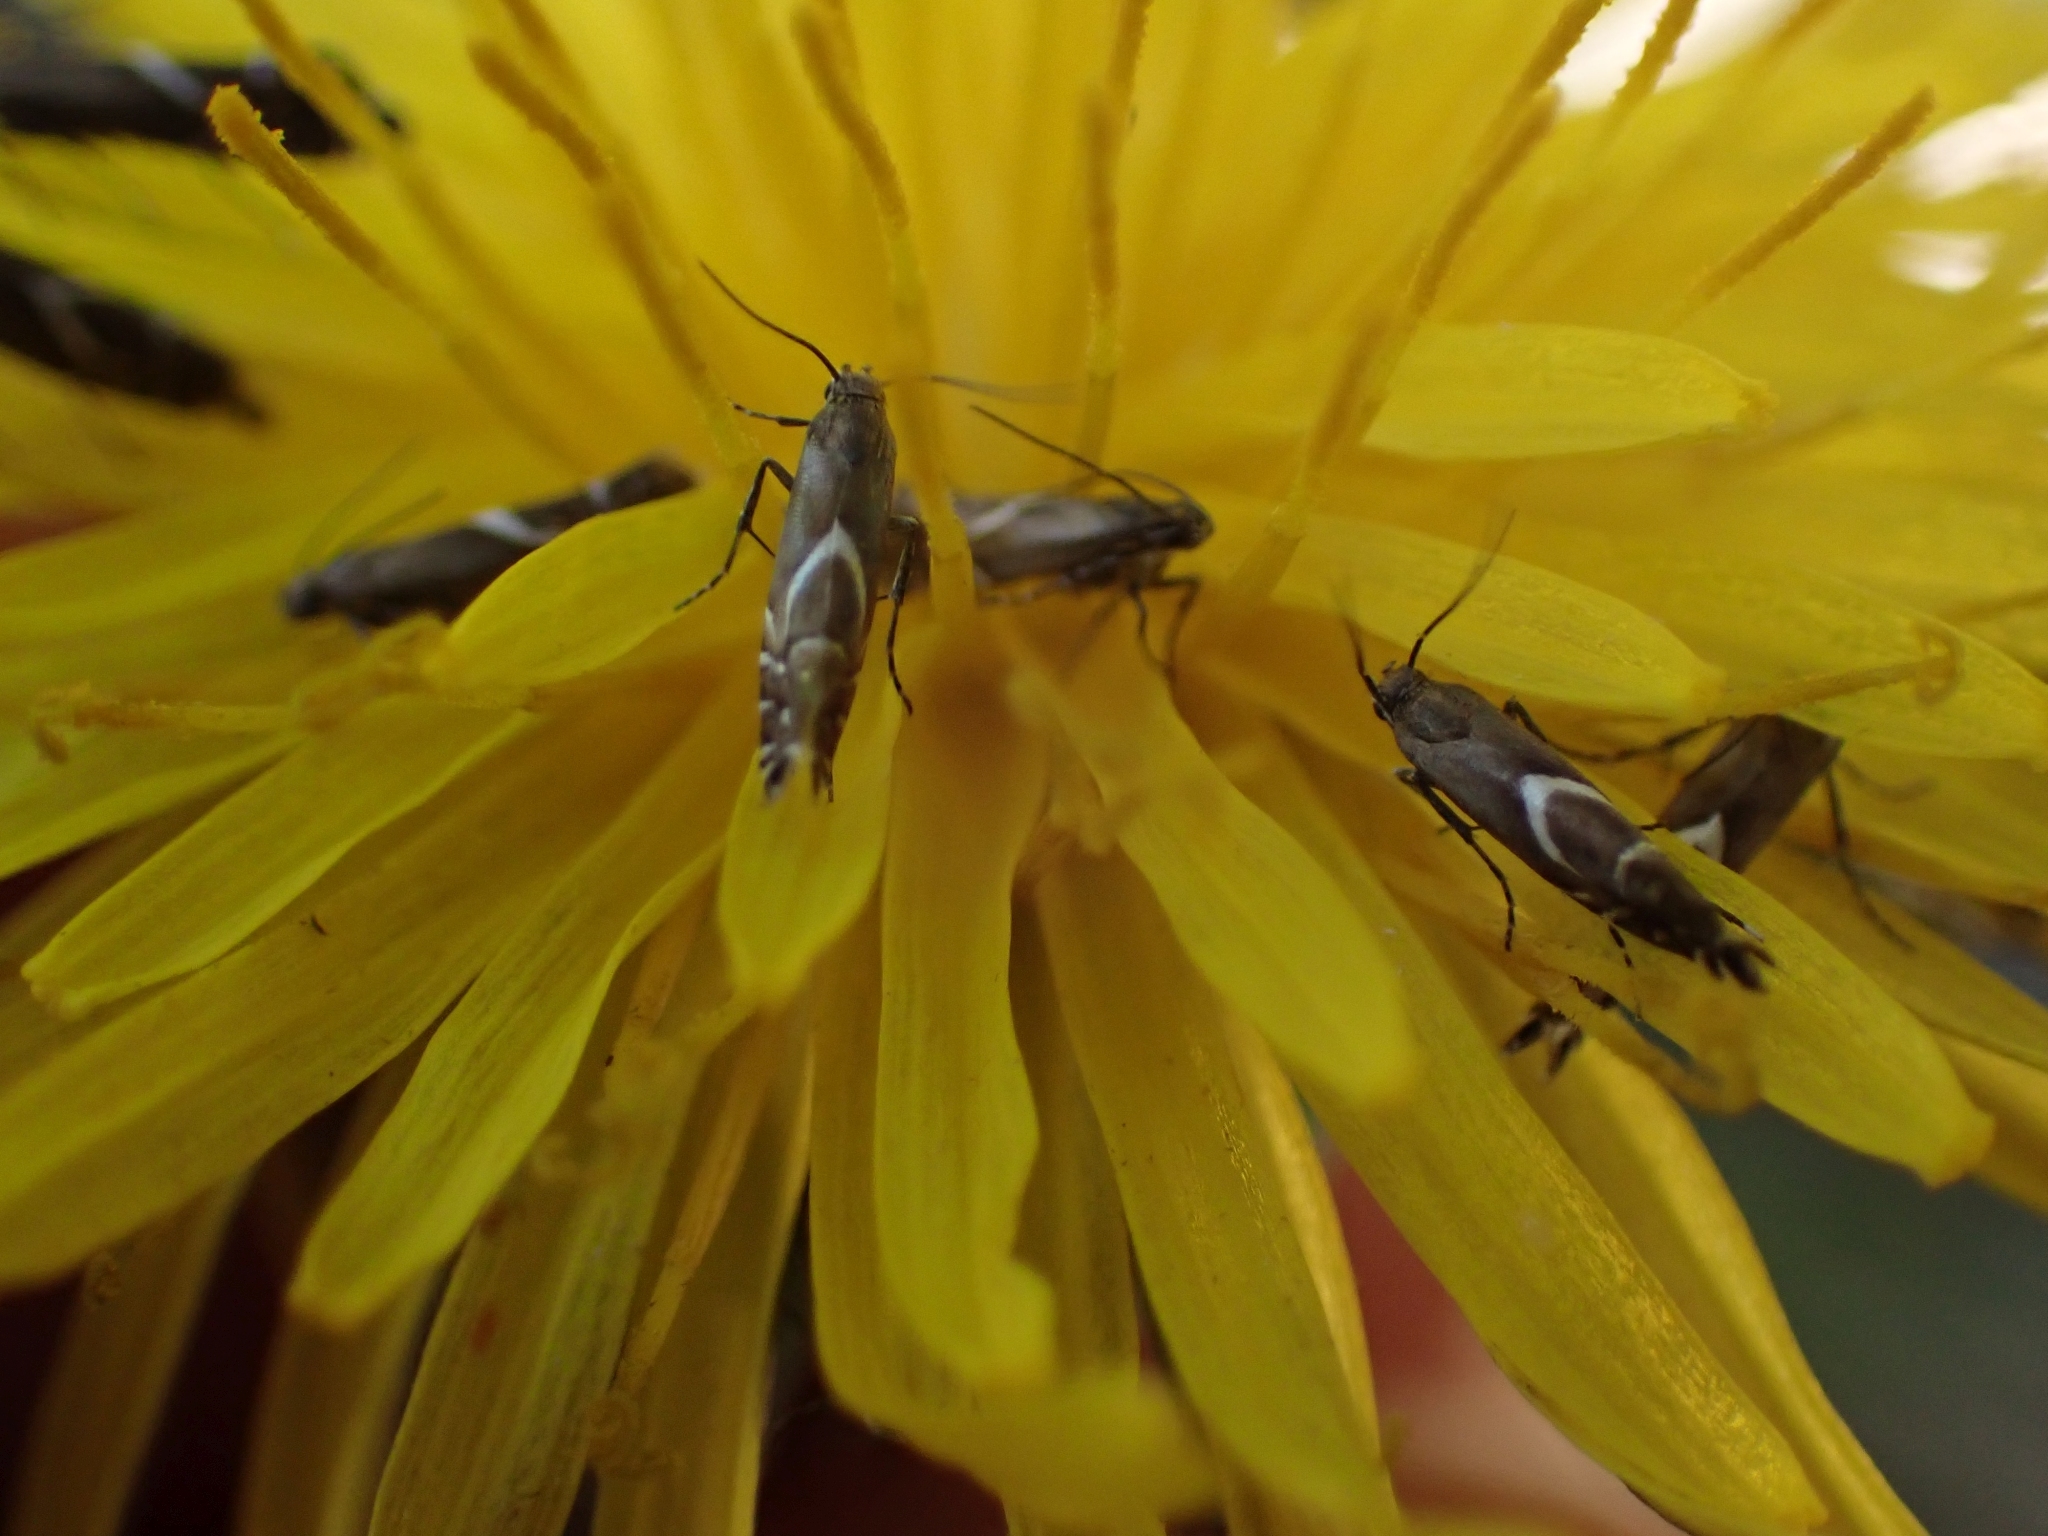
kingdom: Animalia
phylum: Arthropoda
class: Insecta
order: Lepidoptera
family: Glyphipterigidae
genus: Glyphipterix
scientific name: Glyphipterix Diploschizia impigritella
